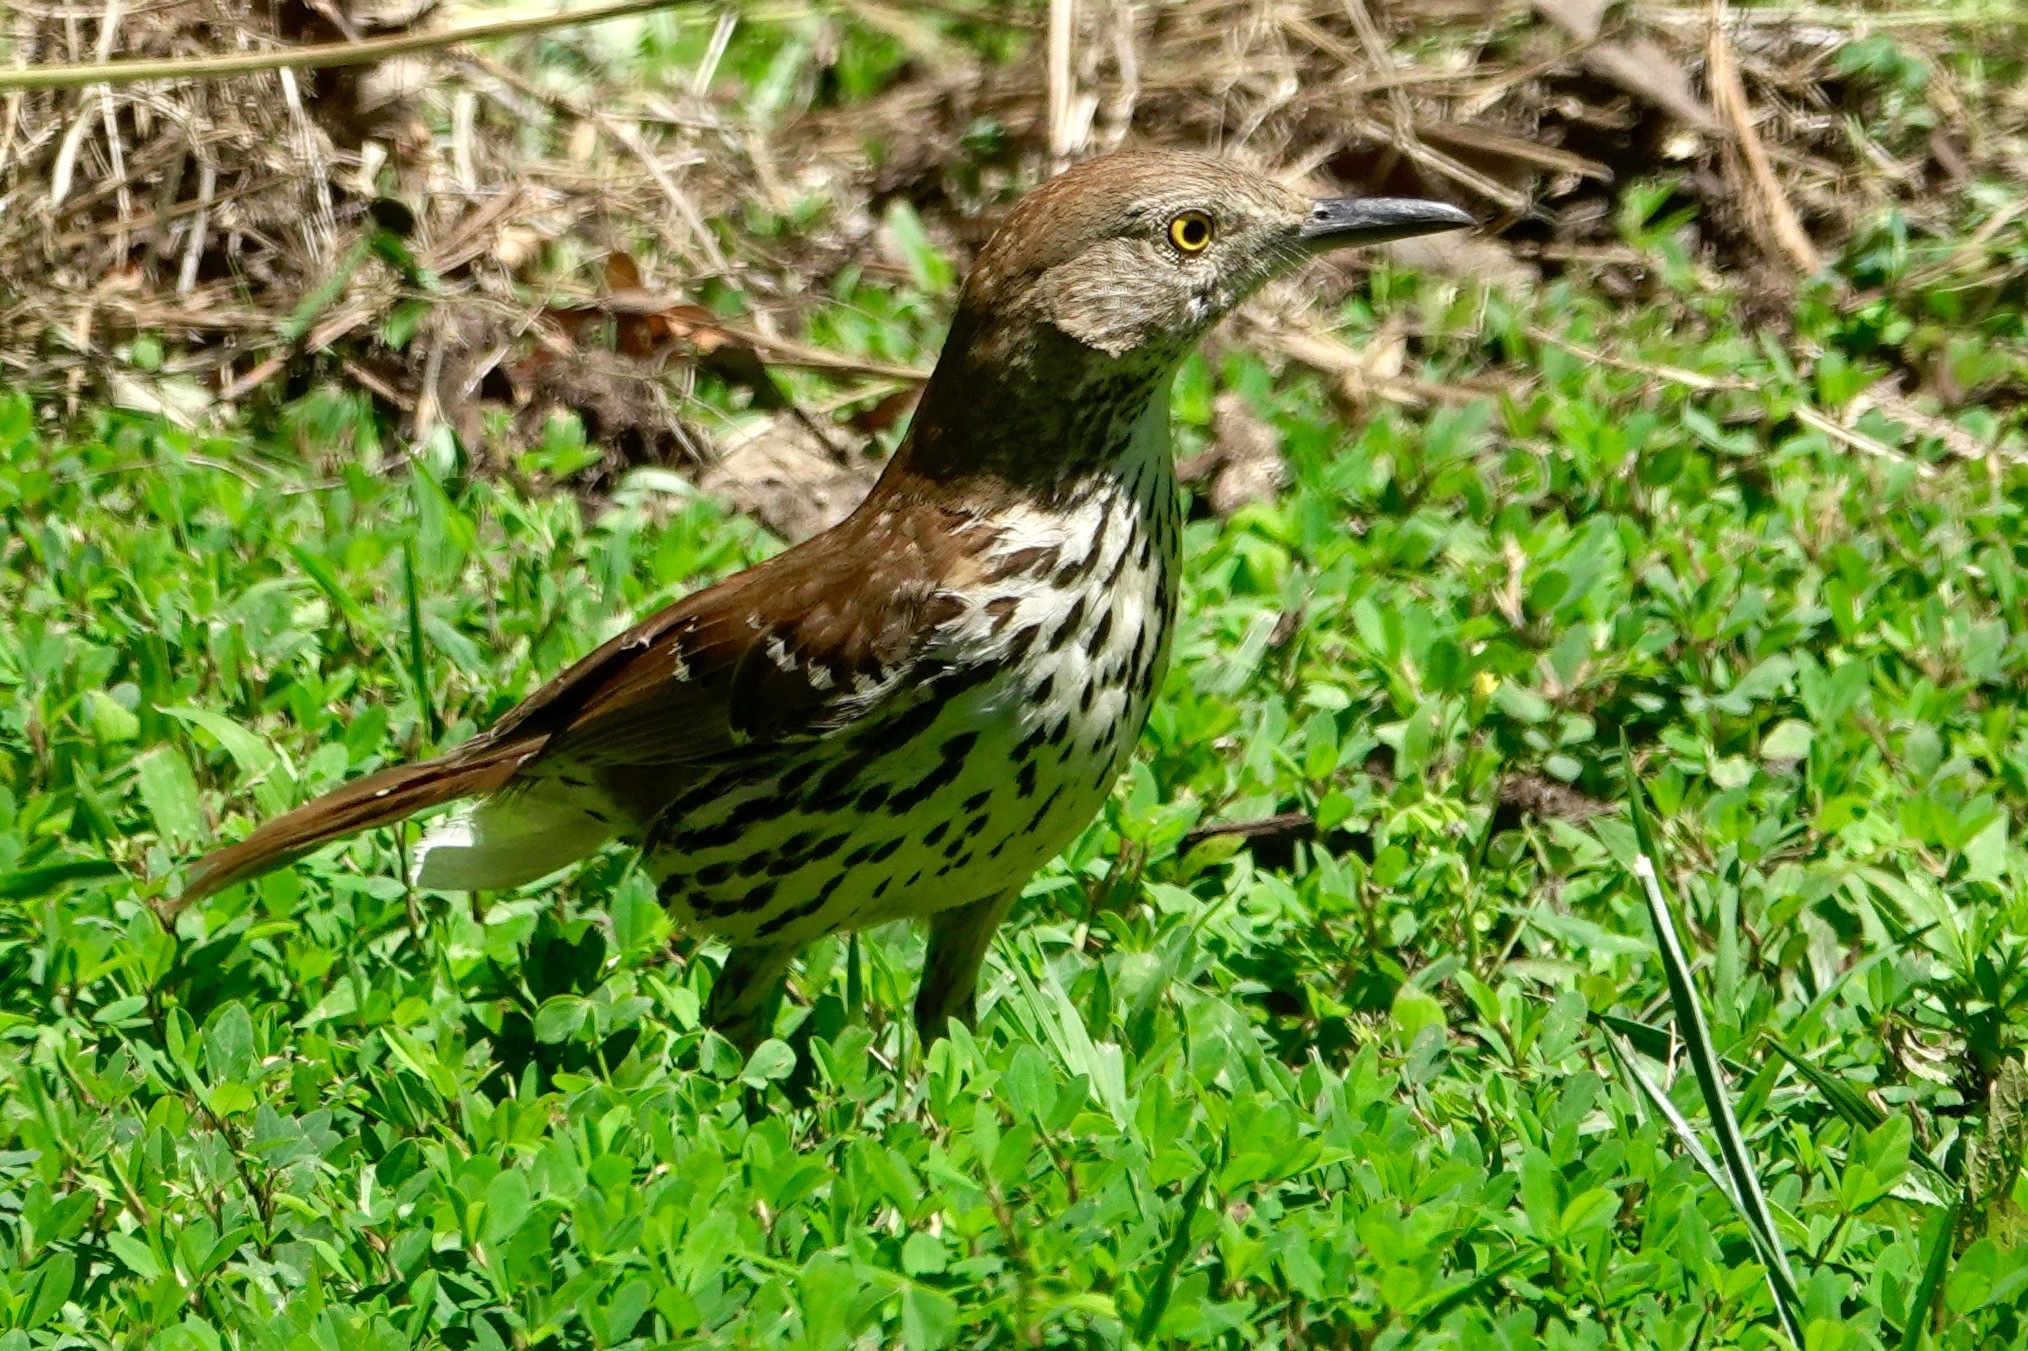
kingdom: Animalia
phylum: Chordata
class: Aves
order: Passeriformes
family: Mimidae
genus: Toxostoma
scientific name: Toxostoma rufum
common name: Brown thrasher
